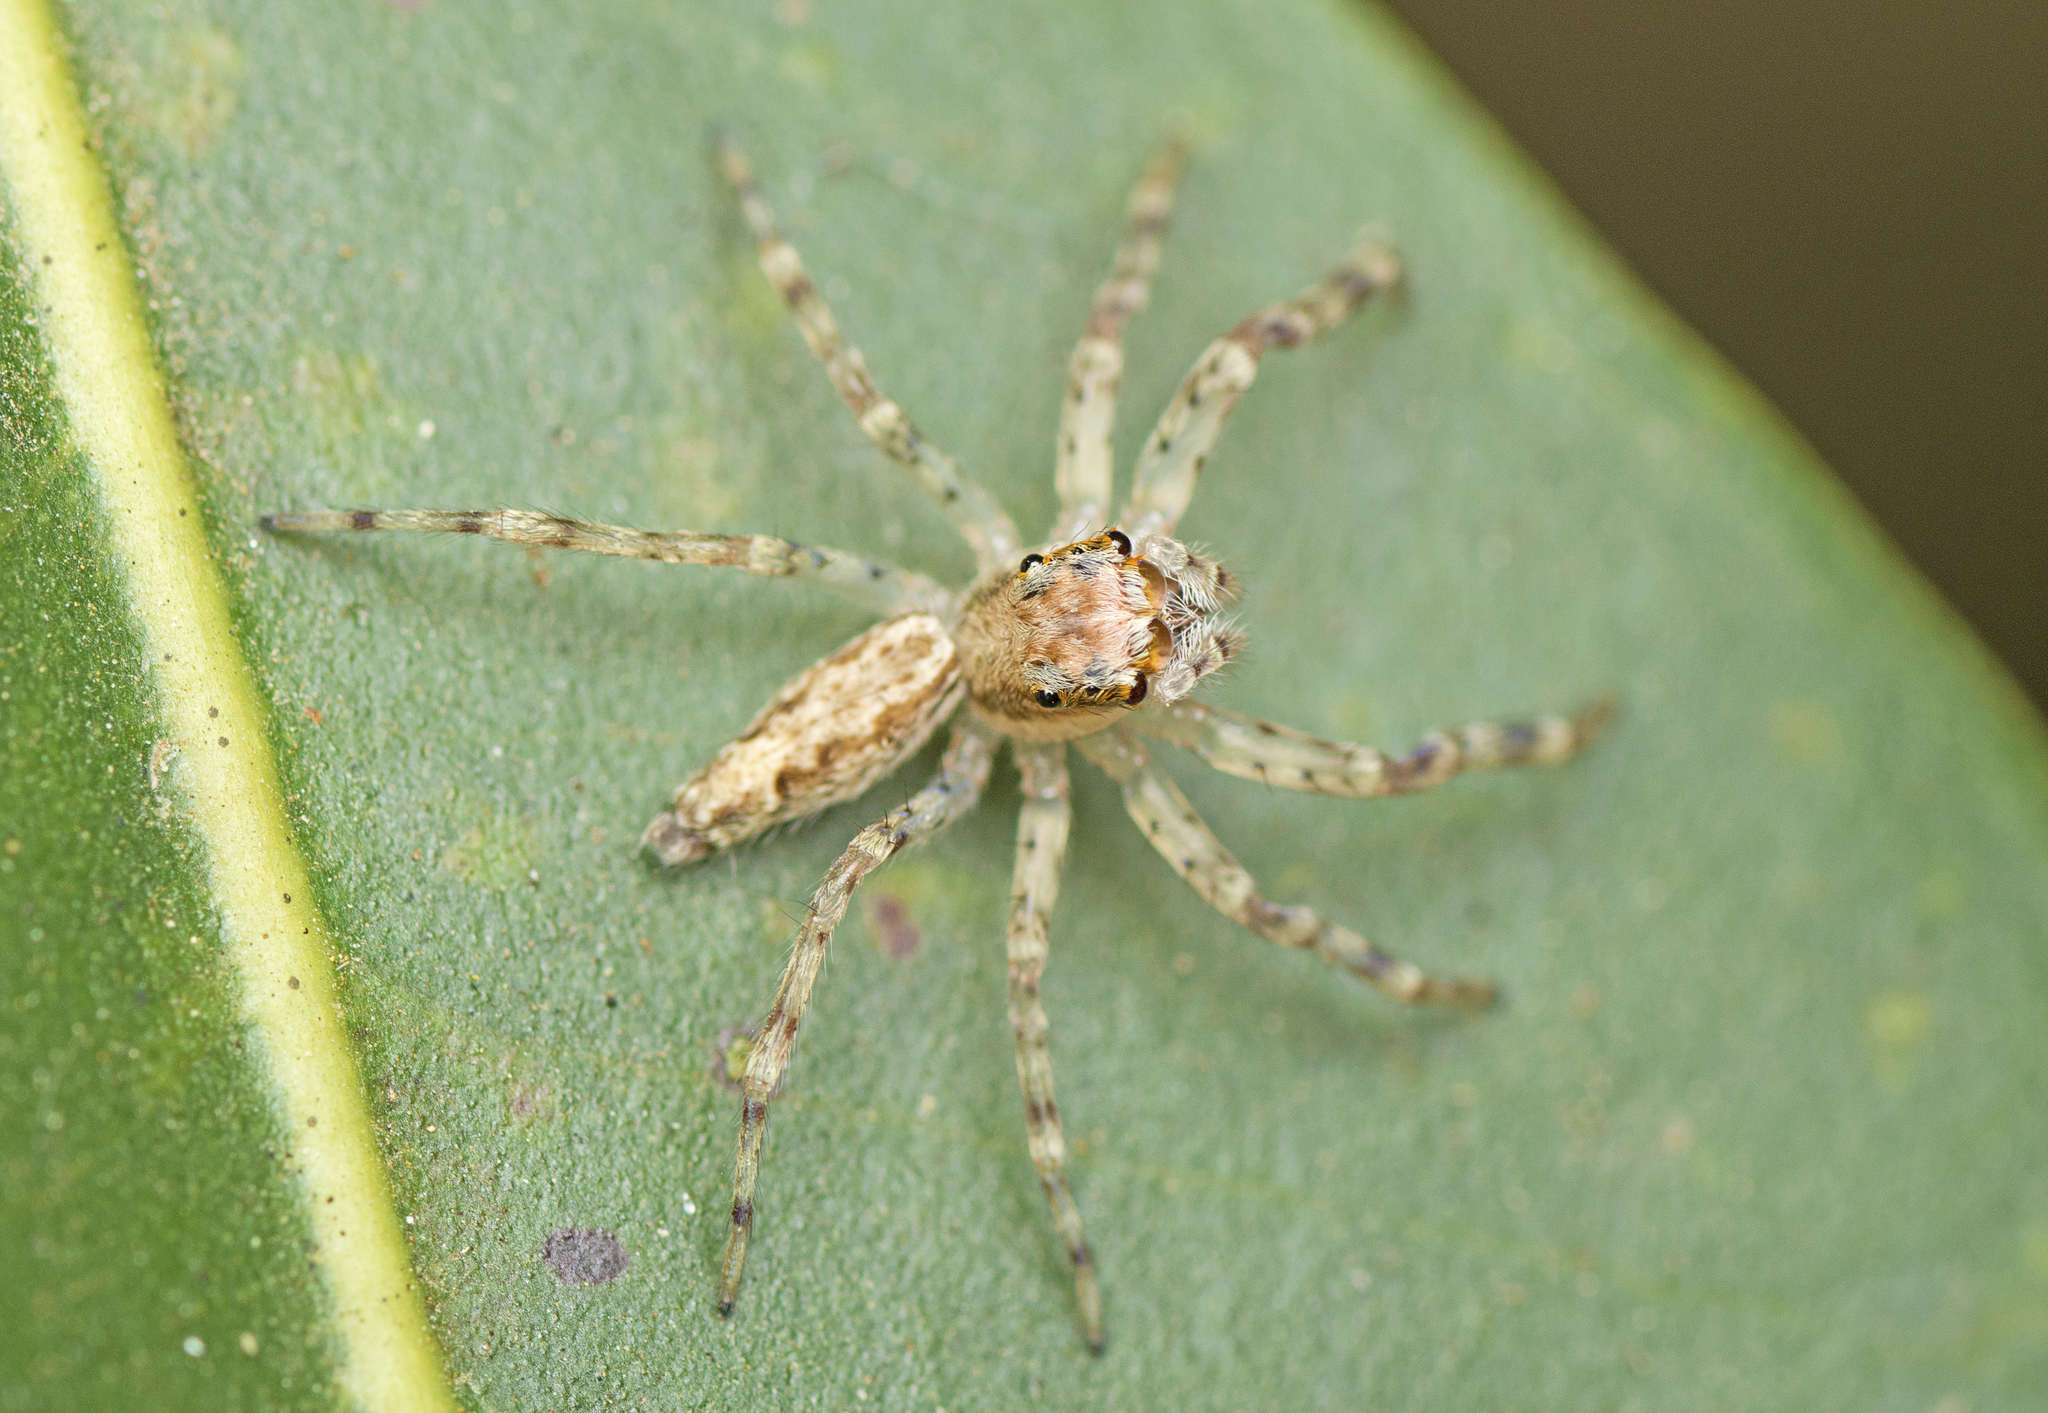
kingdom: Animalia
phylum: Arthropoda
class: Arachnida
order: Araneae
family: Salticidae
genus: Helpis
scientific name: Helpis minitabunda
